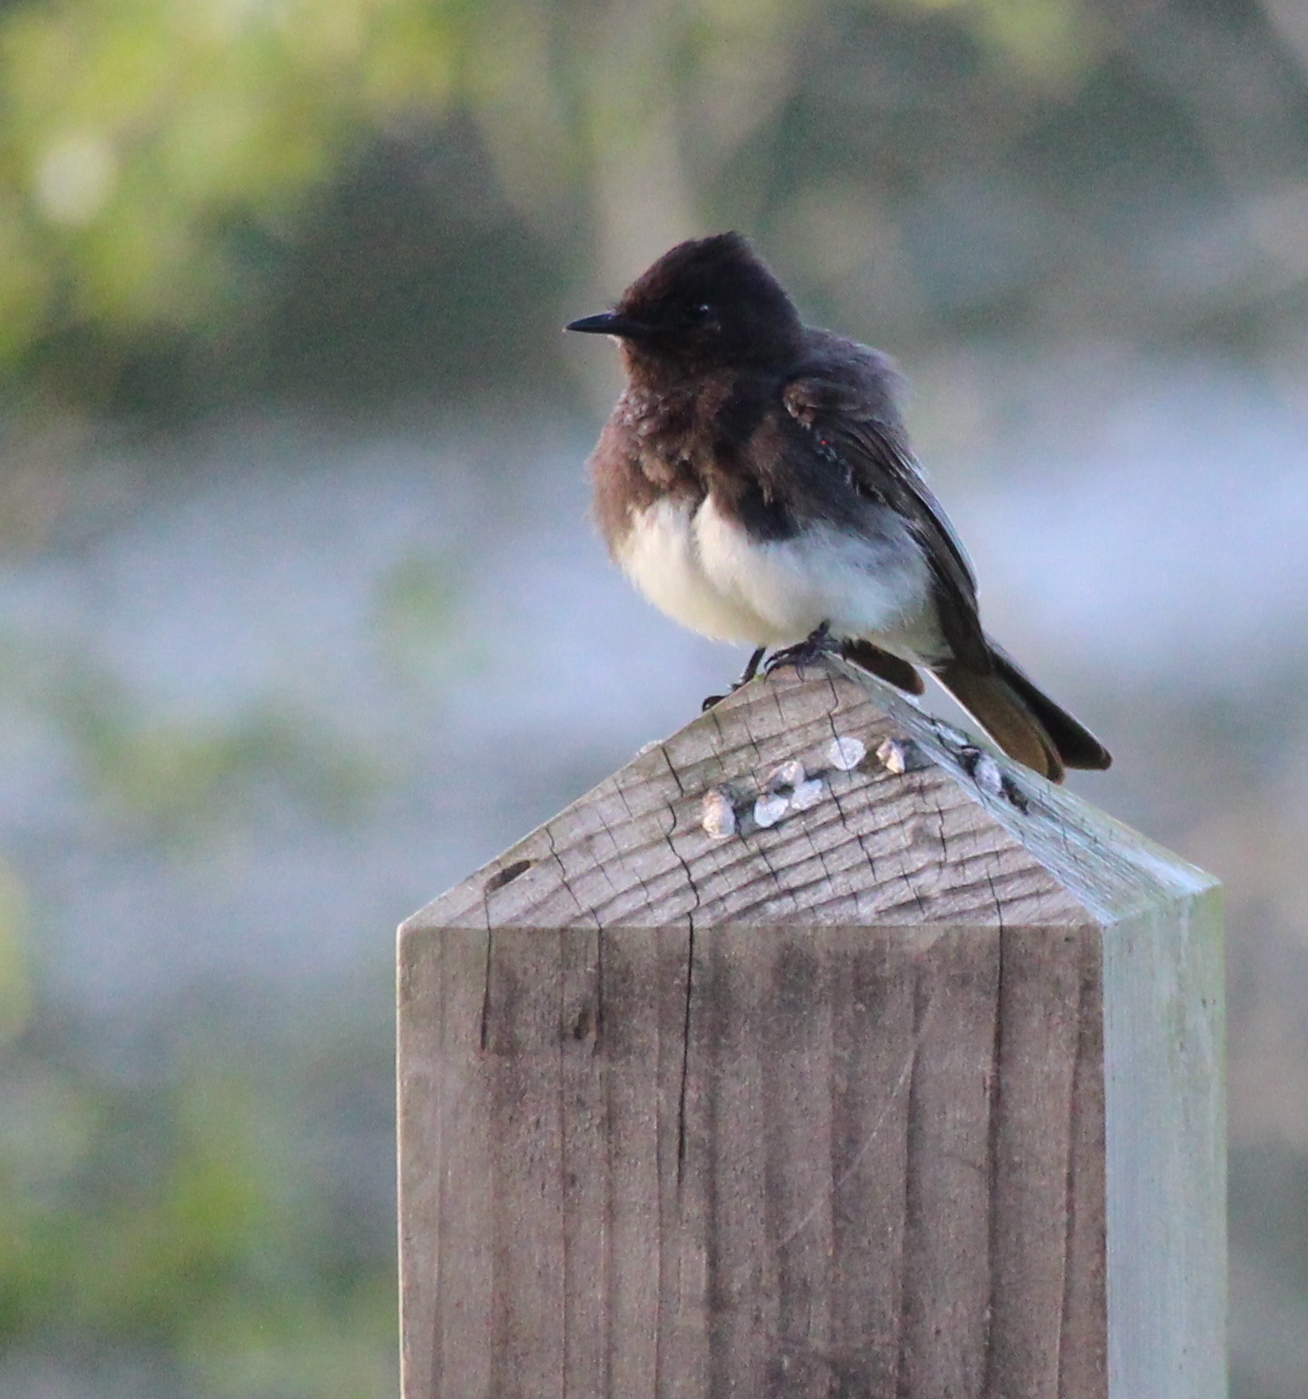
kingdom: Animalia
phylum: Chordata
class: Aves
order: Passeriformes
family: Tyrannidae
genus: Sayornis
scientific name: Sayornis nigricans
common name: Black phoebe
